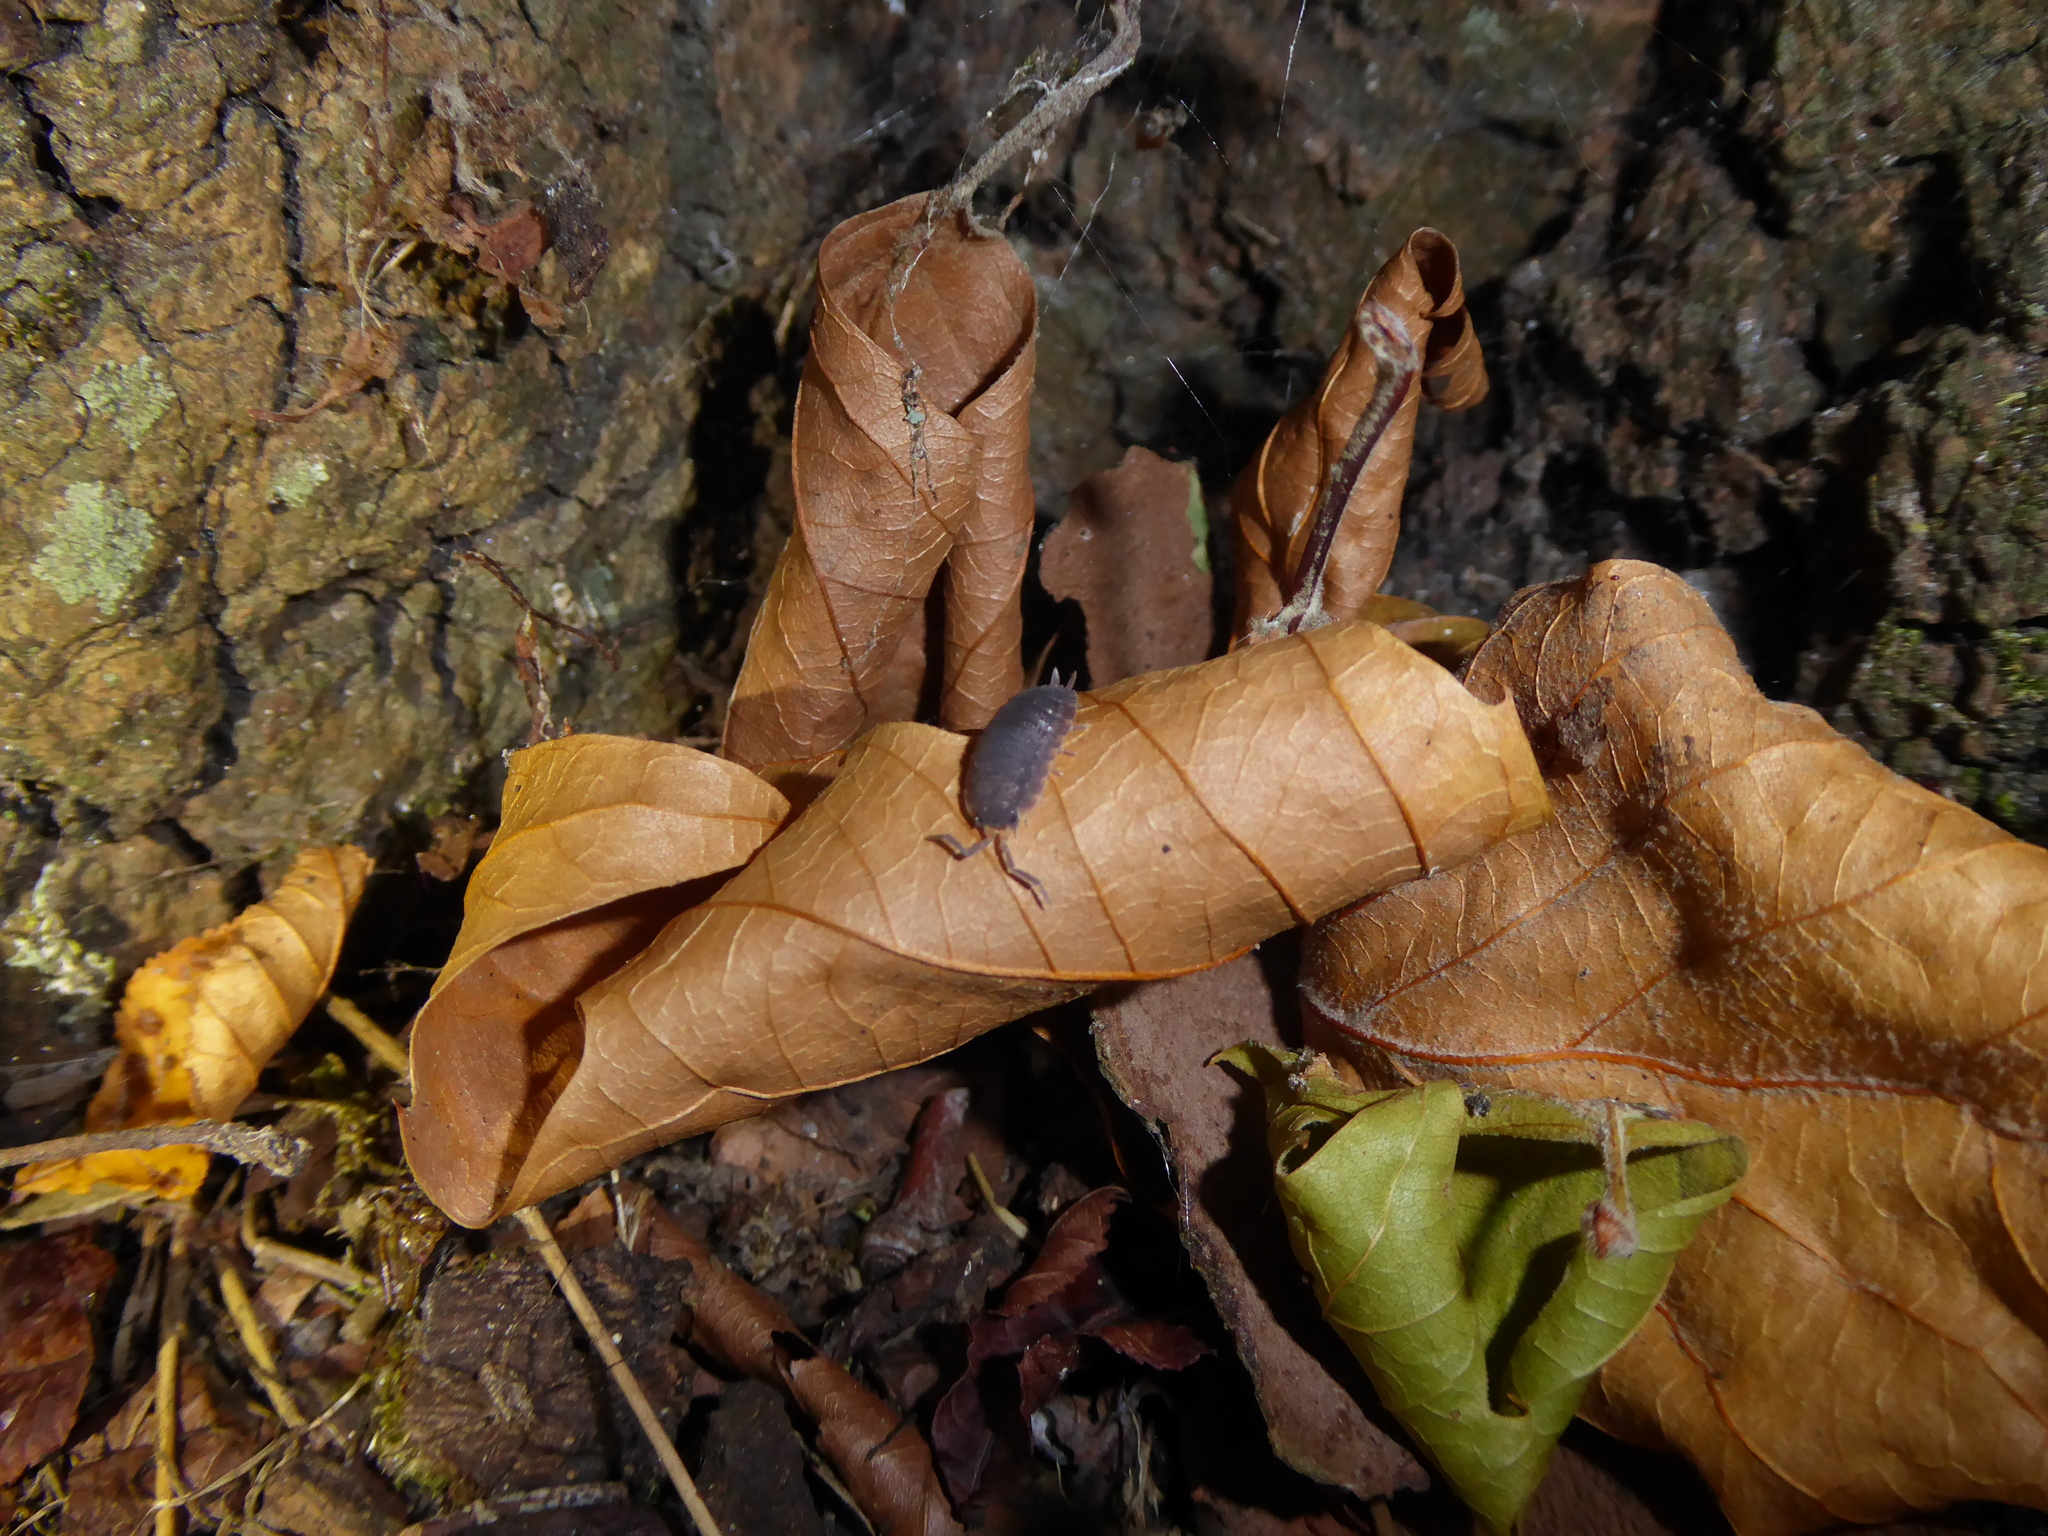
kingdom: Animalia
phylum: Arthropoda
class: Malacostraca
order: Isopoda
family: Porcellionidae
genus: Porcellio
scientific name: Porcellio scaber
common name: Common rough woodlouse
